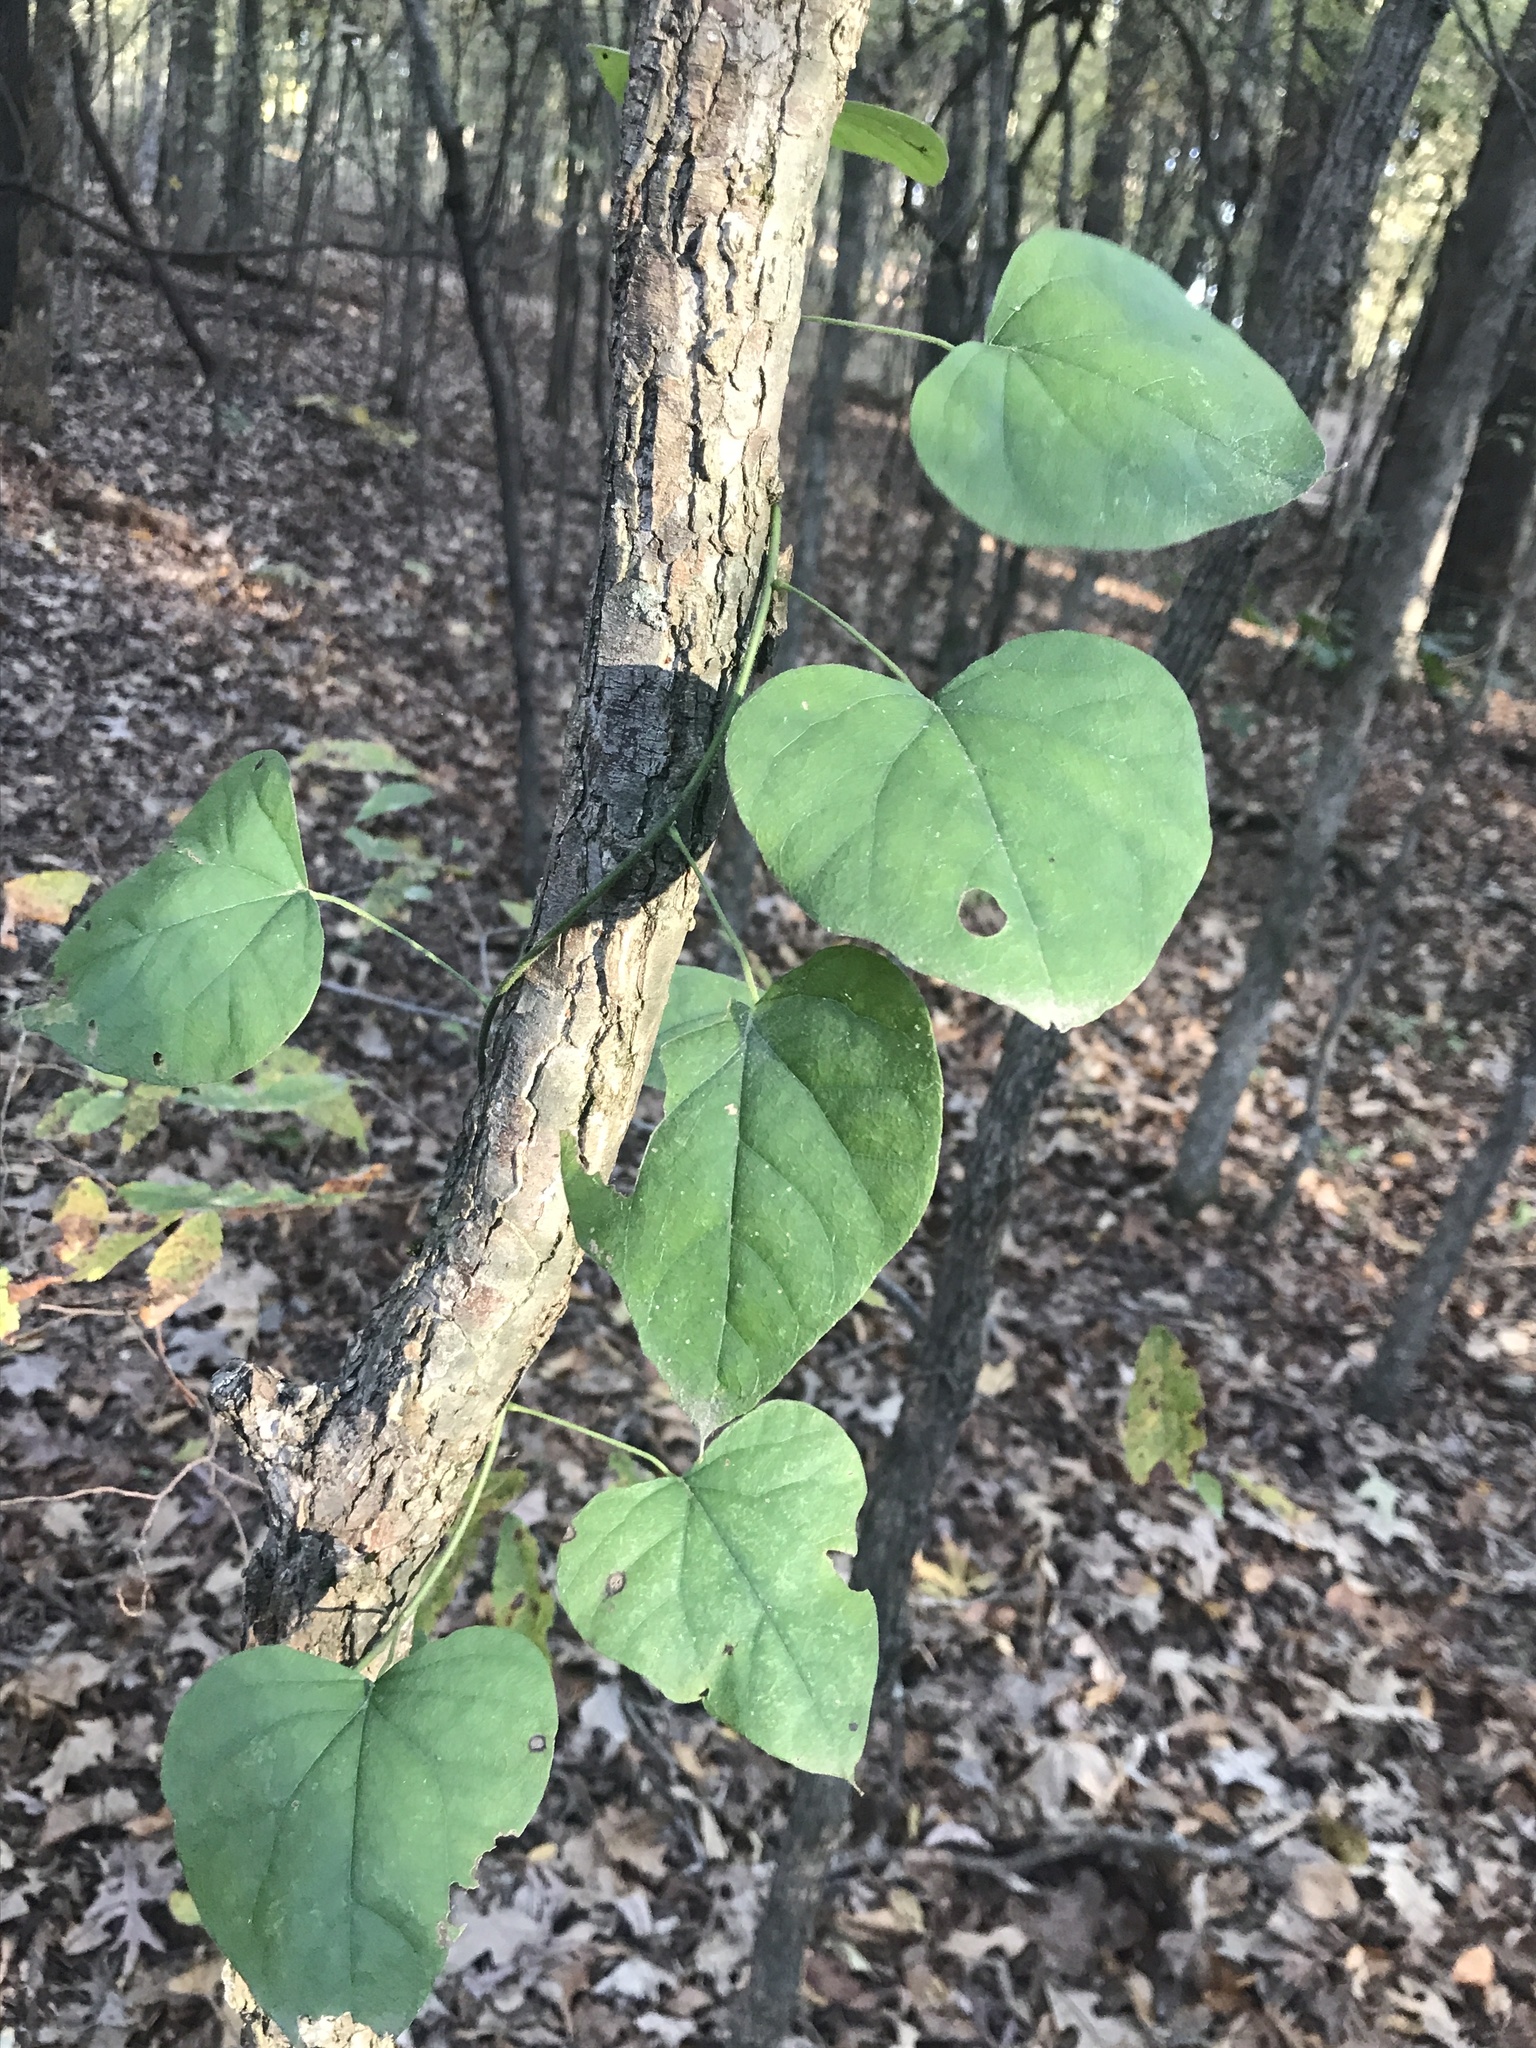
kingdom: Plantae
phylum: Tracheophyta
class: Magnoliopsida
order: Ranunculales
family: Menispermaceae
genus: Cocculus
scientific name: Cocculus carolinus
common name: Carolina moonseed
